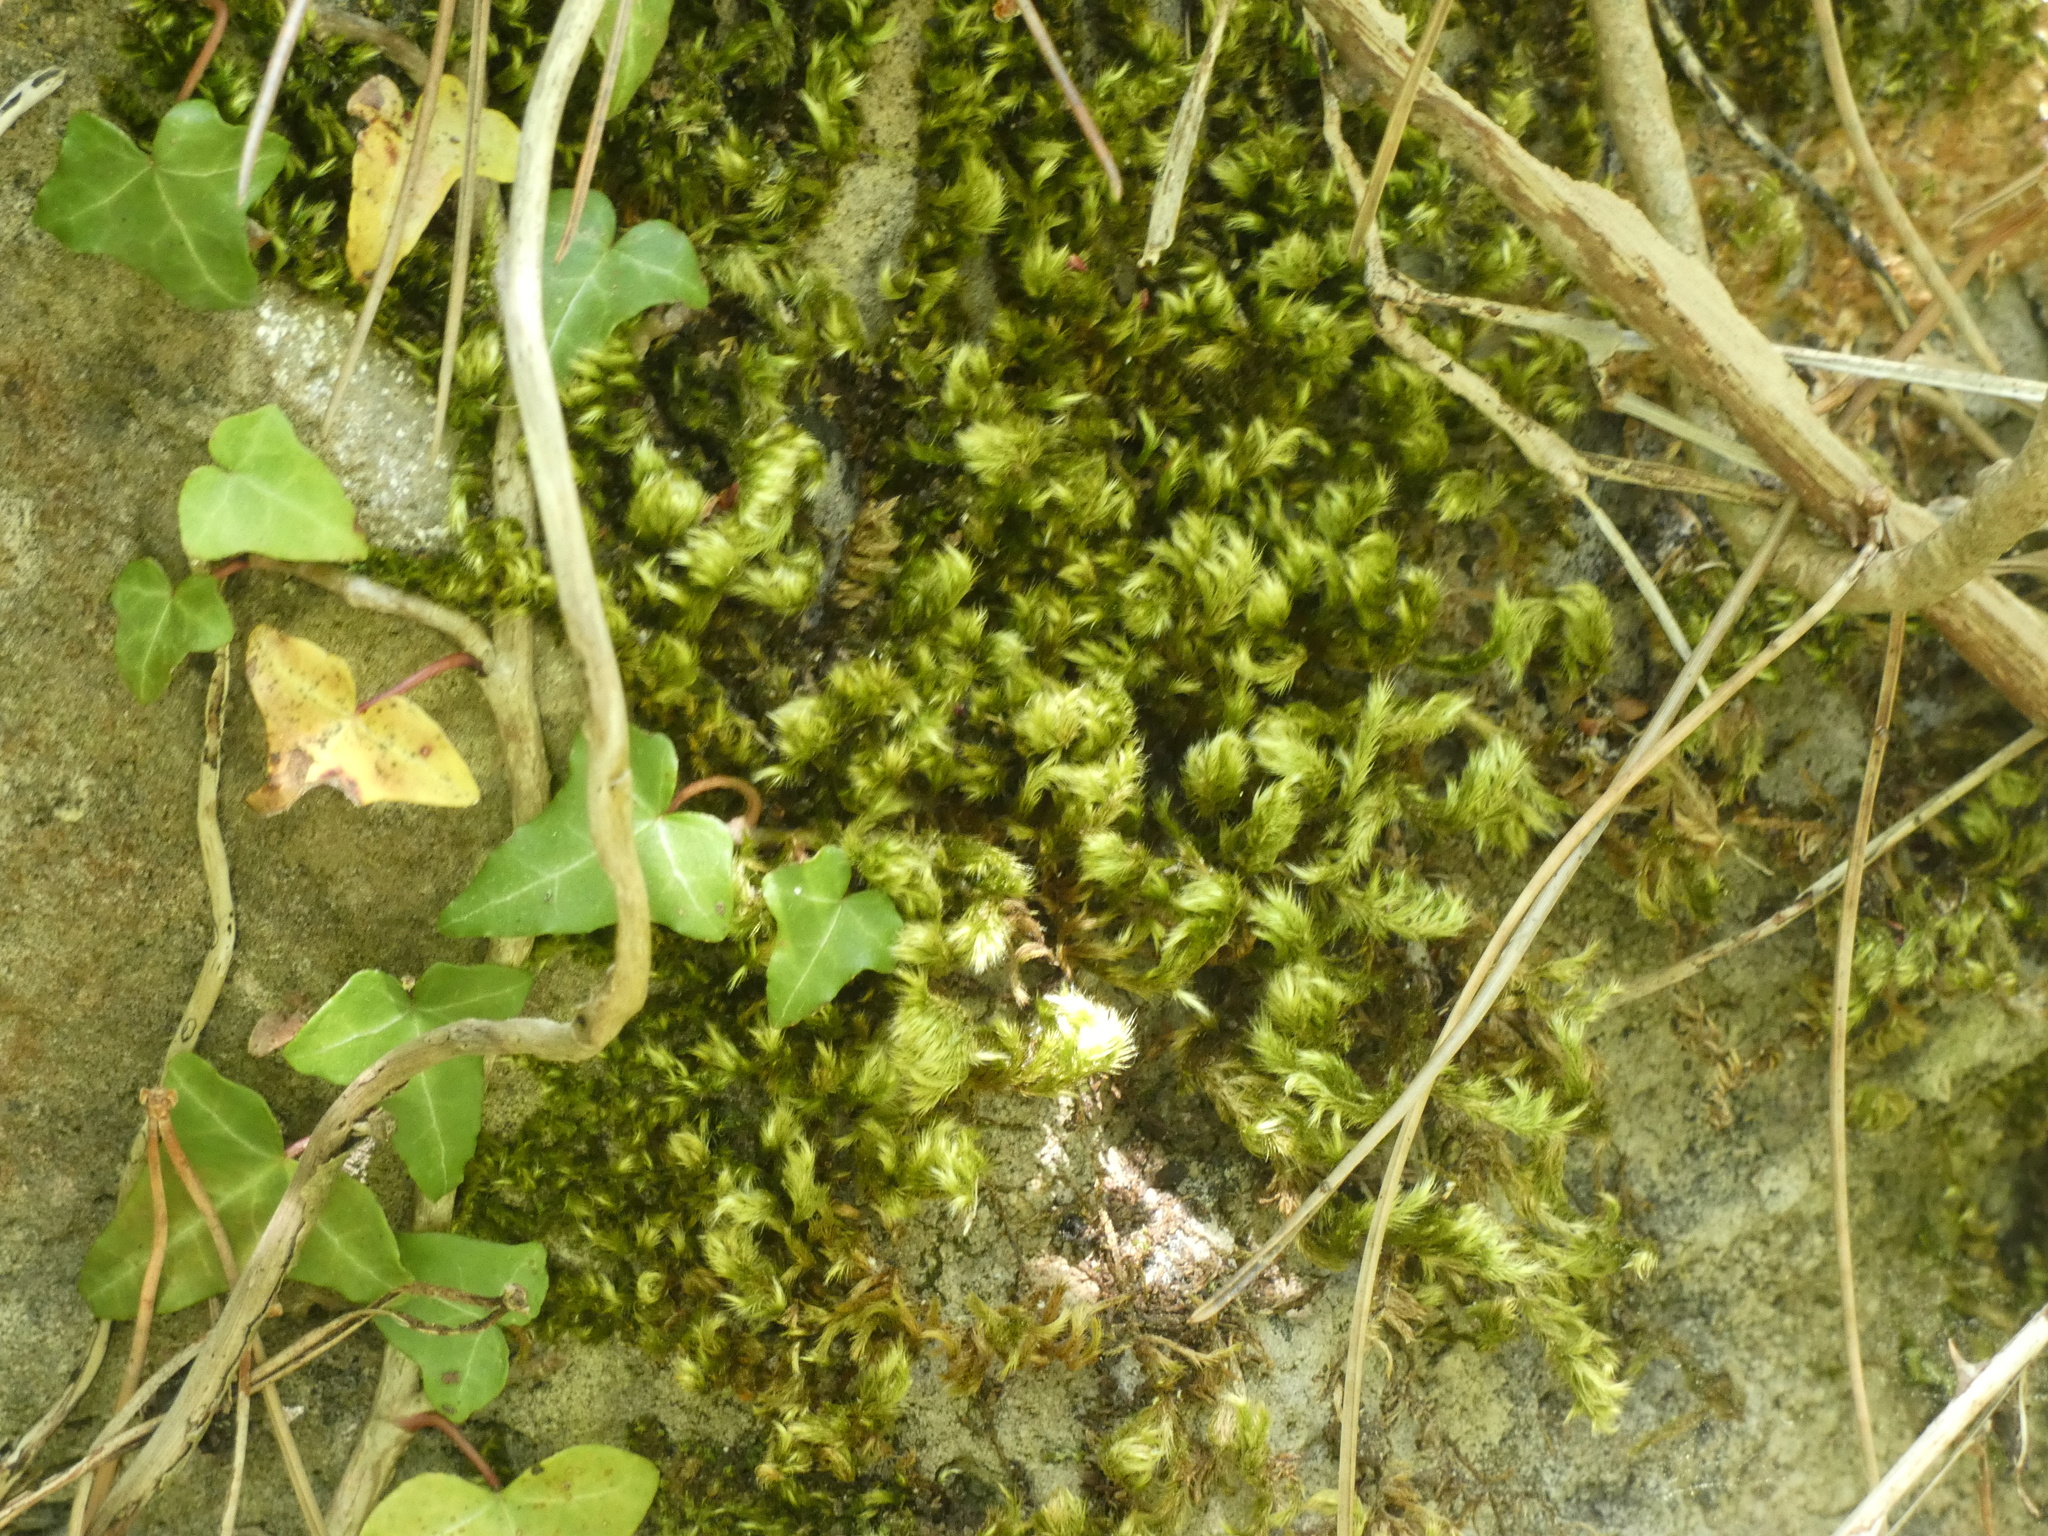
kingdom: Plantae
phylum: Bryophyta
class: Bryopsida
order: Hypnales
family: Brachytheciaceae
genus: Homalothecium
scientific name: Homalothecium sericeum
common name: Silky wall feather-moss
